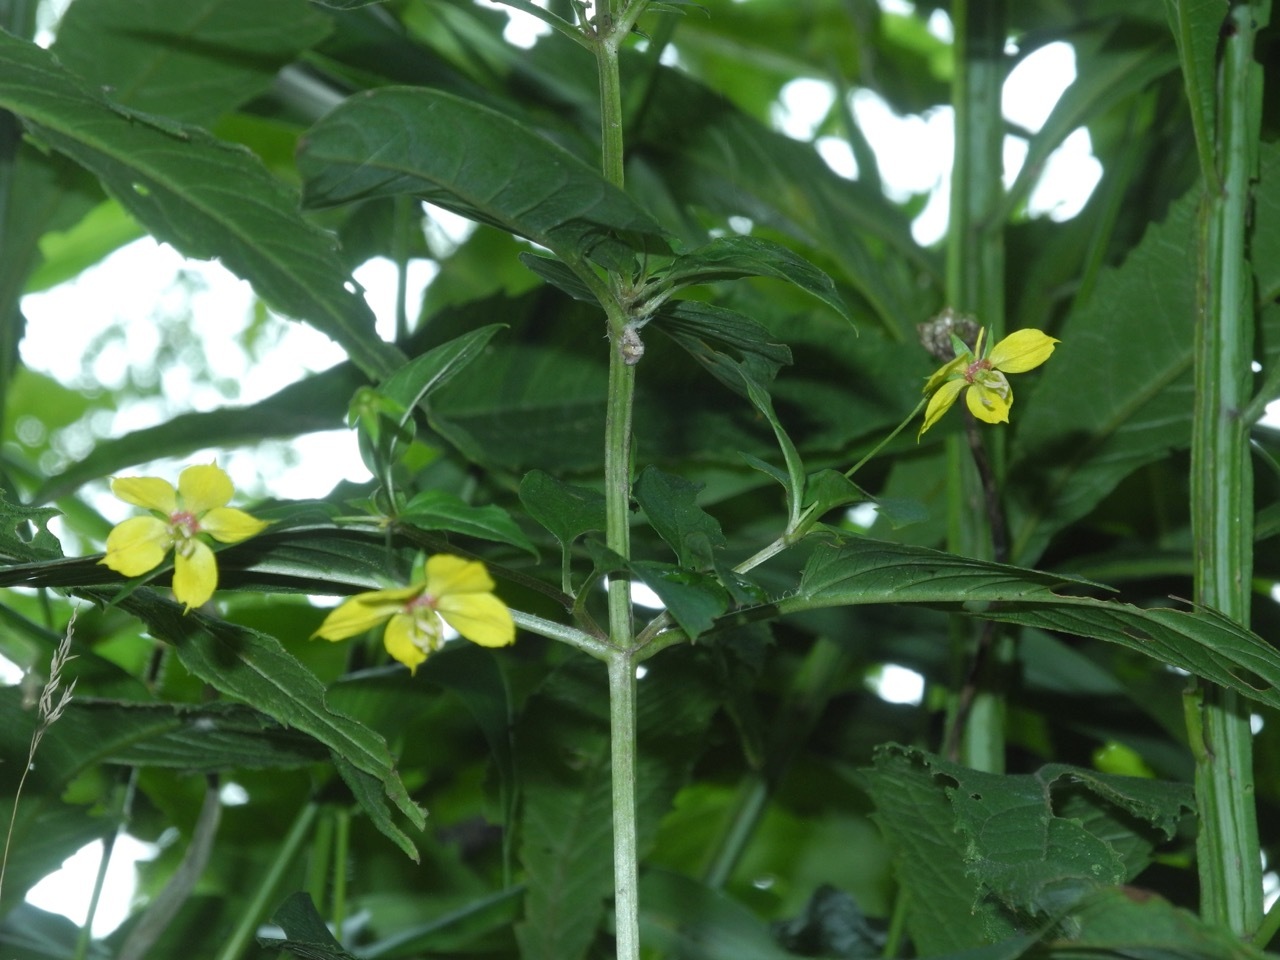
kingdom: Plantae
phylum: Tracheophyta
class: Magnoliopsida
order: Ericales
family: Primulaceae
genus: Lysimachia
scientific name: Lysimachia ciliata
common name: Fringed loosestrife
